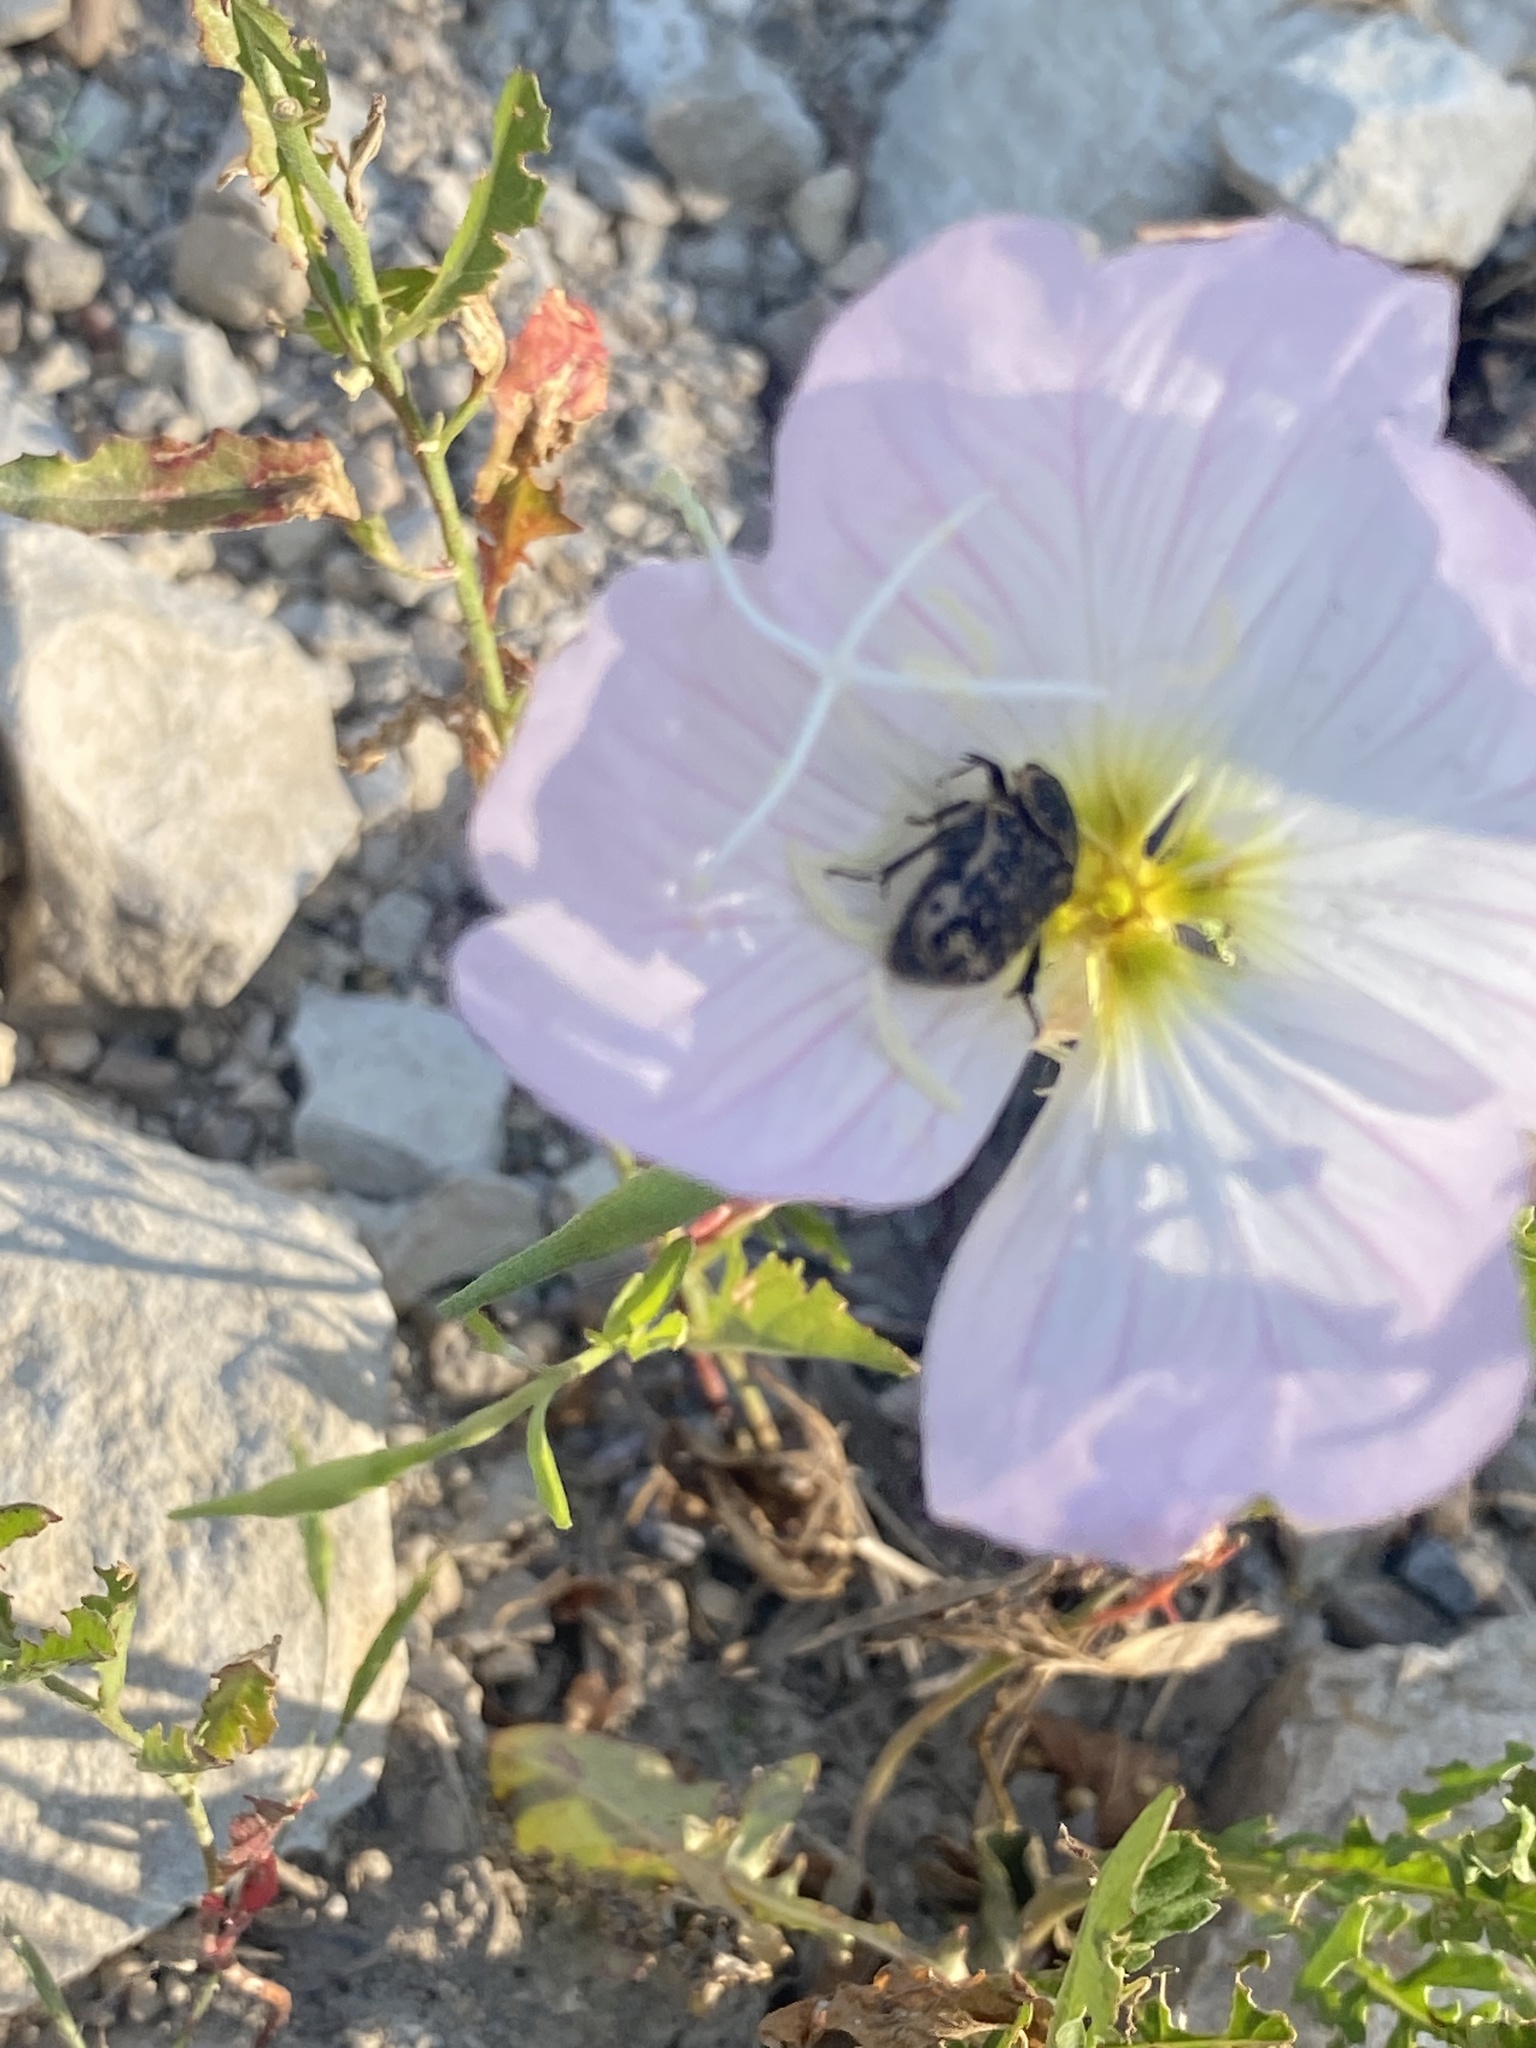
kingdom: Animalia
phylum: Arthropoda
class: Insecta
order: Coleoptera
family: Scarabaeidae
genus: Euphoria
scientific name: Euphoria kernii
